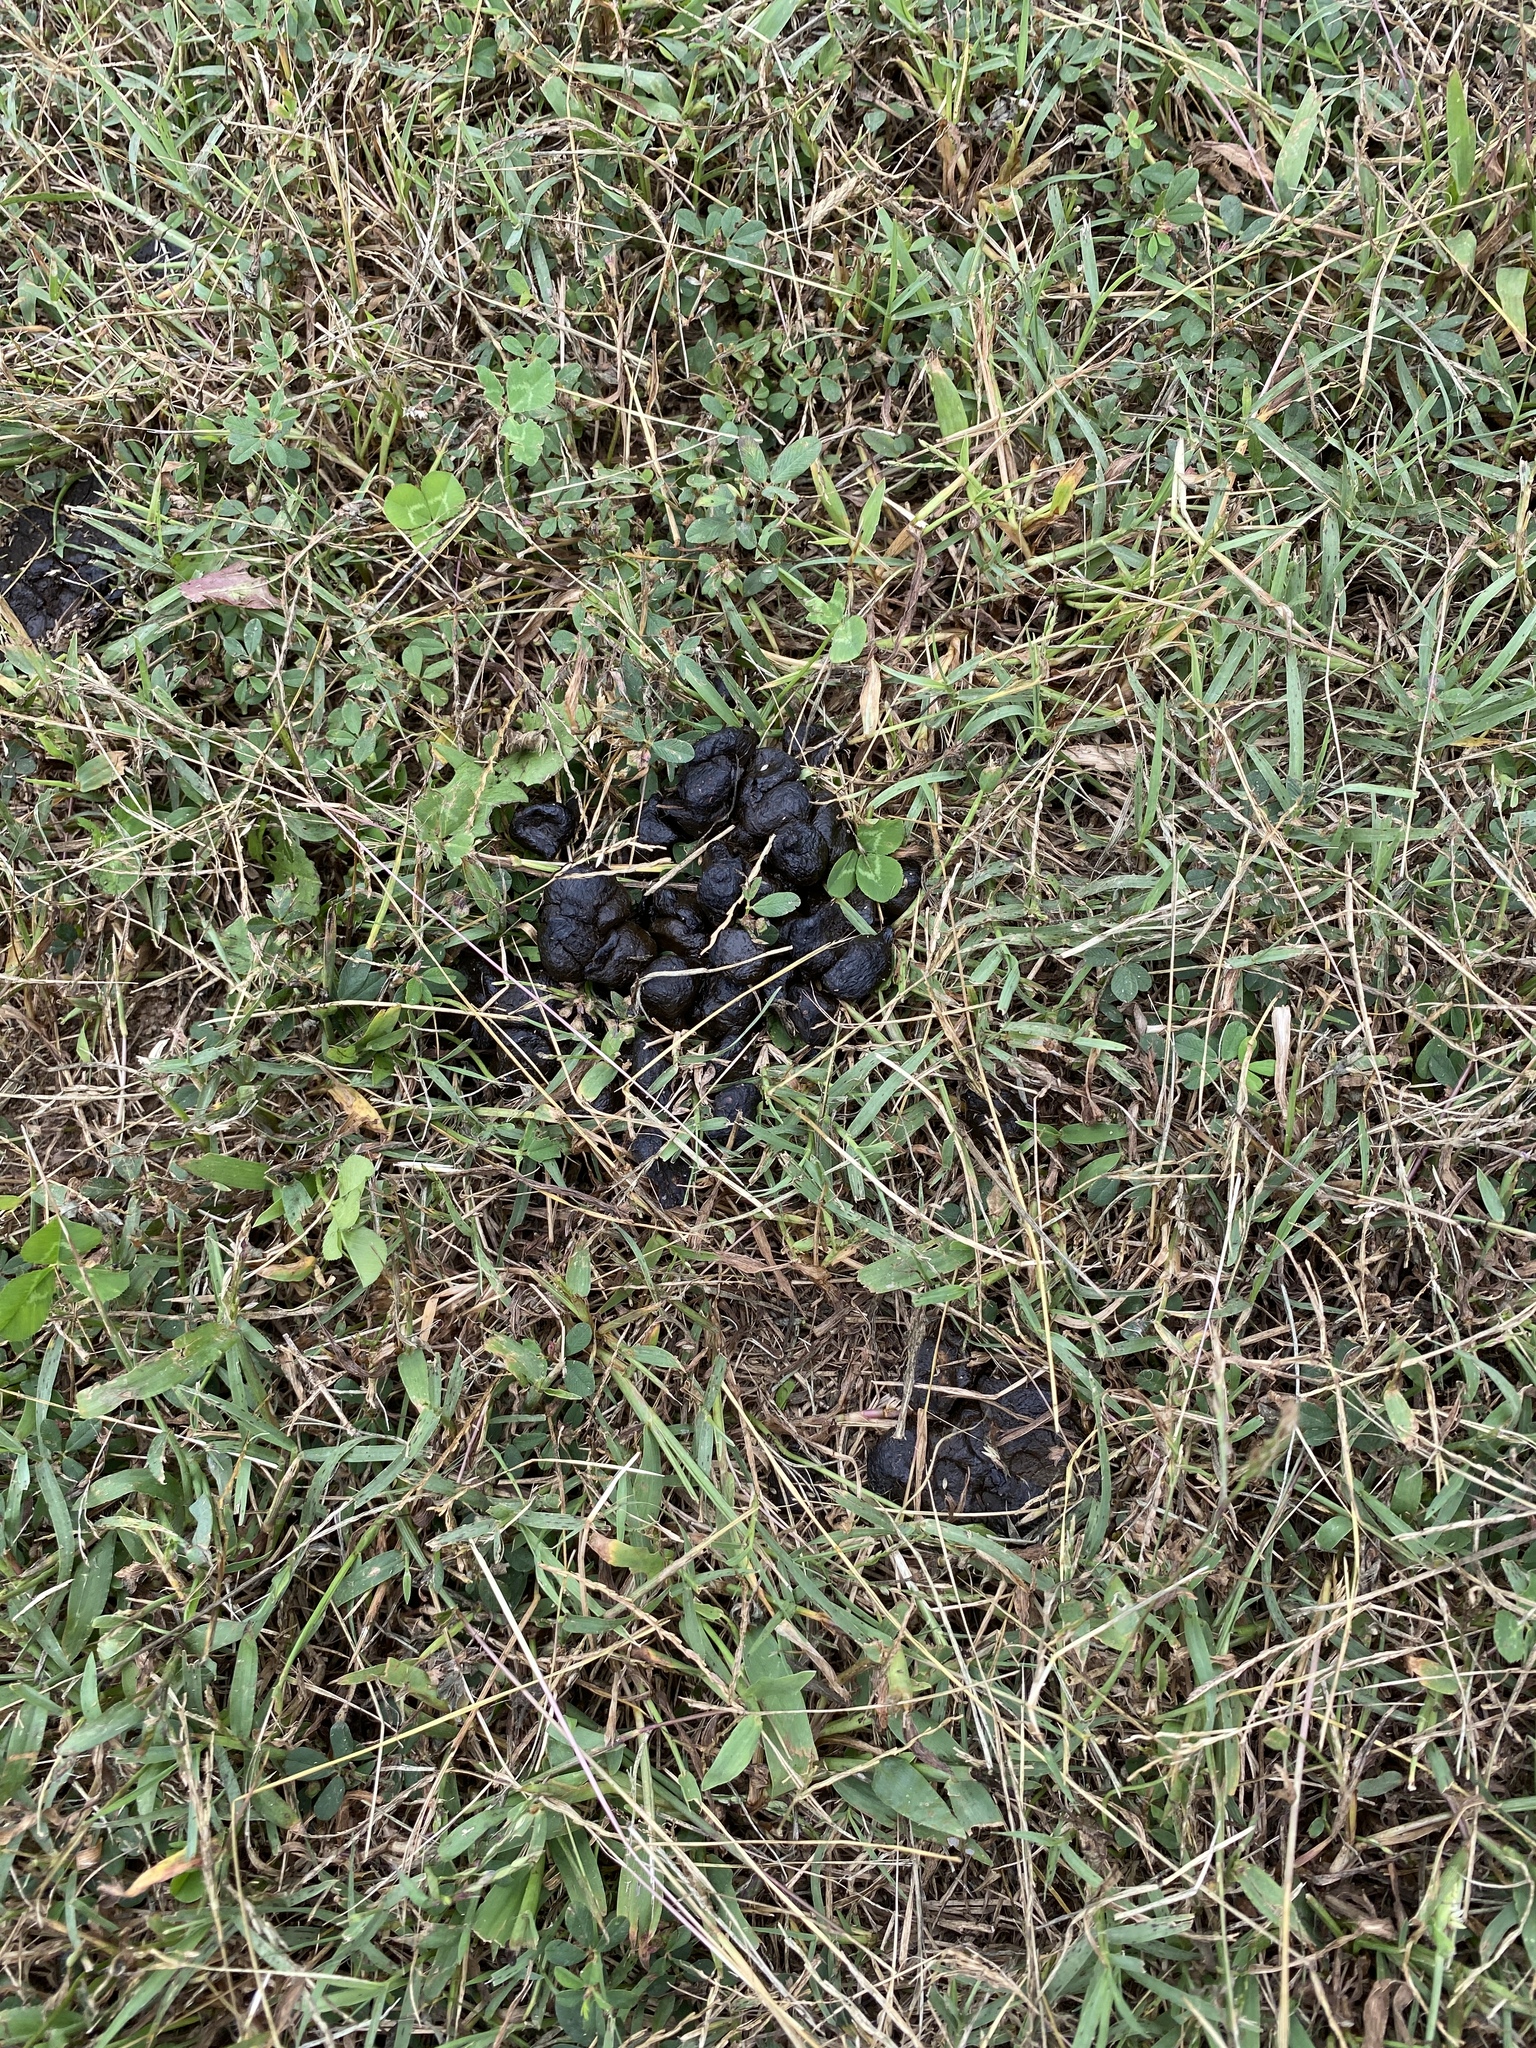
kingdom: Animalia
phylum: Chordata
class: Mammalia
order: Artiodactyla
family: Cervidae
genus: Odocoileus
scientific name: Odocoileus virginianus
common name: White-tailed deer
